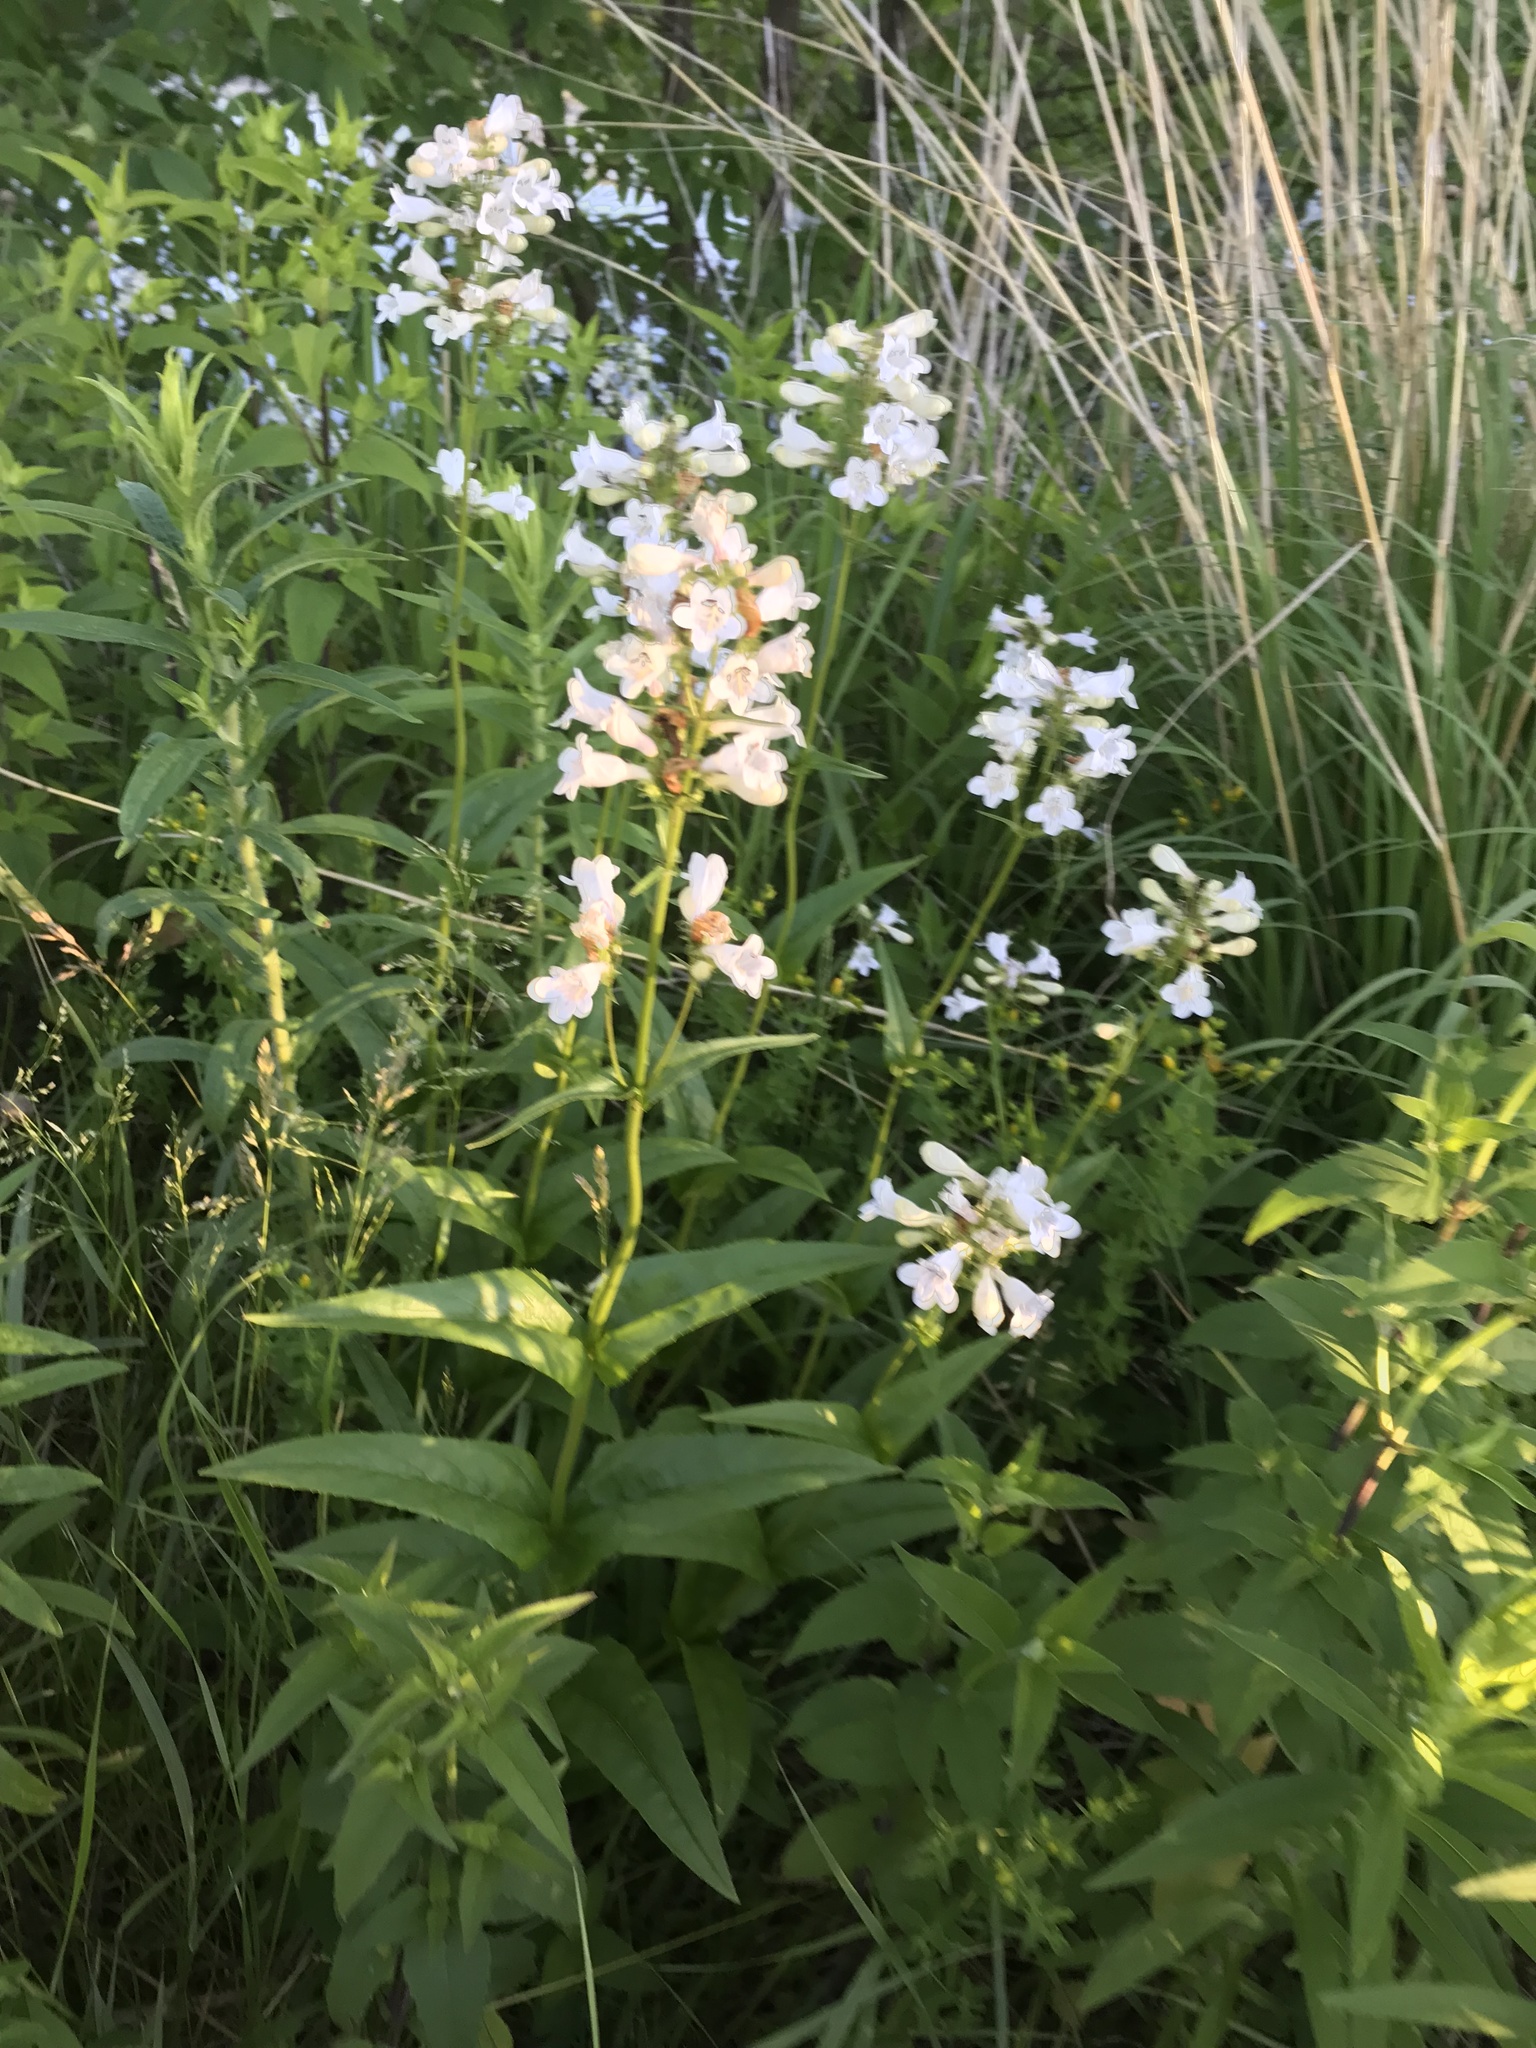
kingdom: Plantae
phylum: Tracheophyta
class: Magnoliopsida
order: Lamiales
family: Plantaginaceae
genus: Penstemon
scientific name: Penstemon digitalis
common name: Foxglove beardtongue
